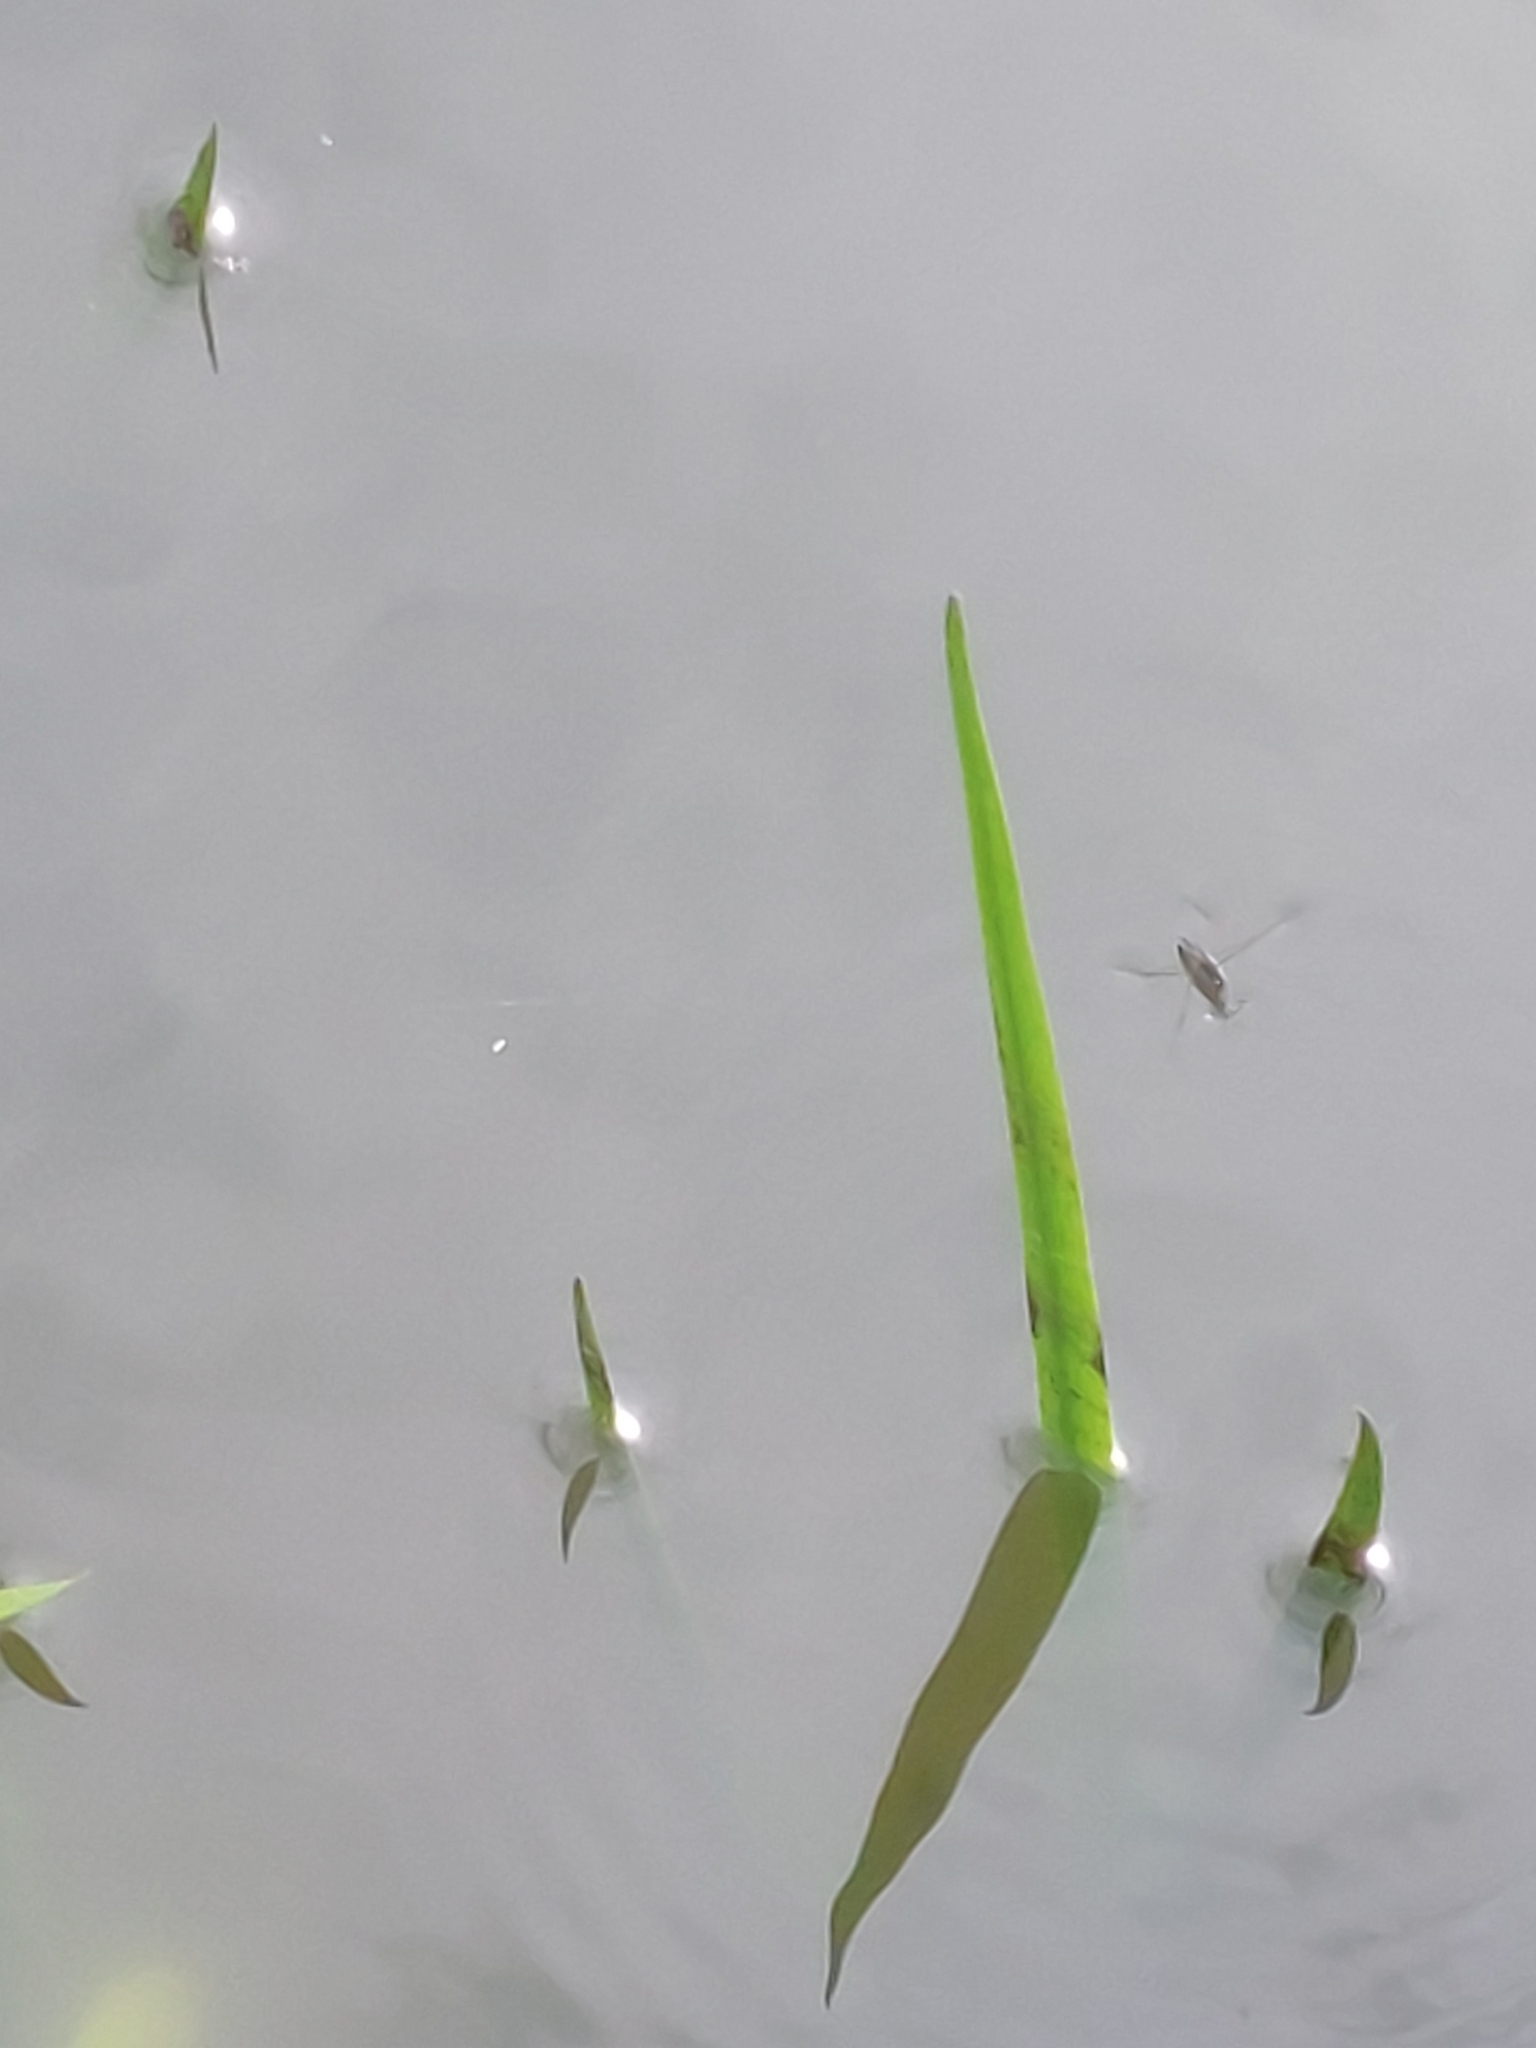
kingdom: Animalia
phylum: Arthropoda
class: Insecta
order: Hemiptera
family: Gerridae
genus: Gerris
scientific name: Gerris
